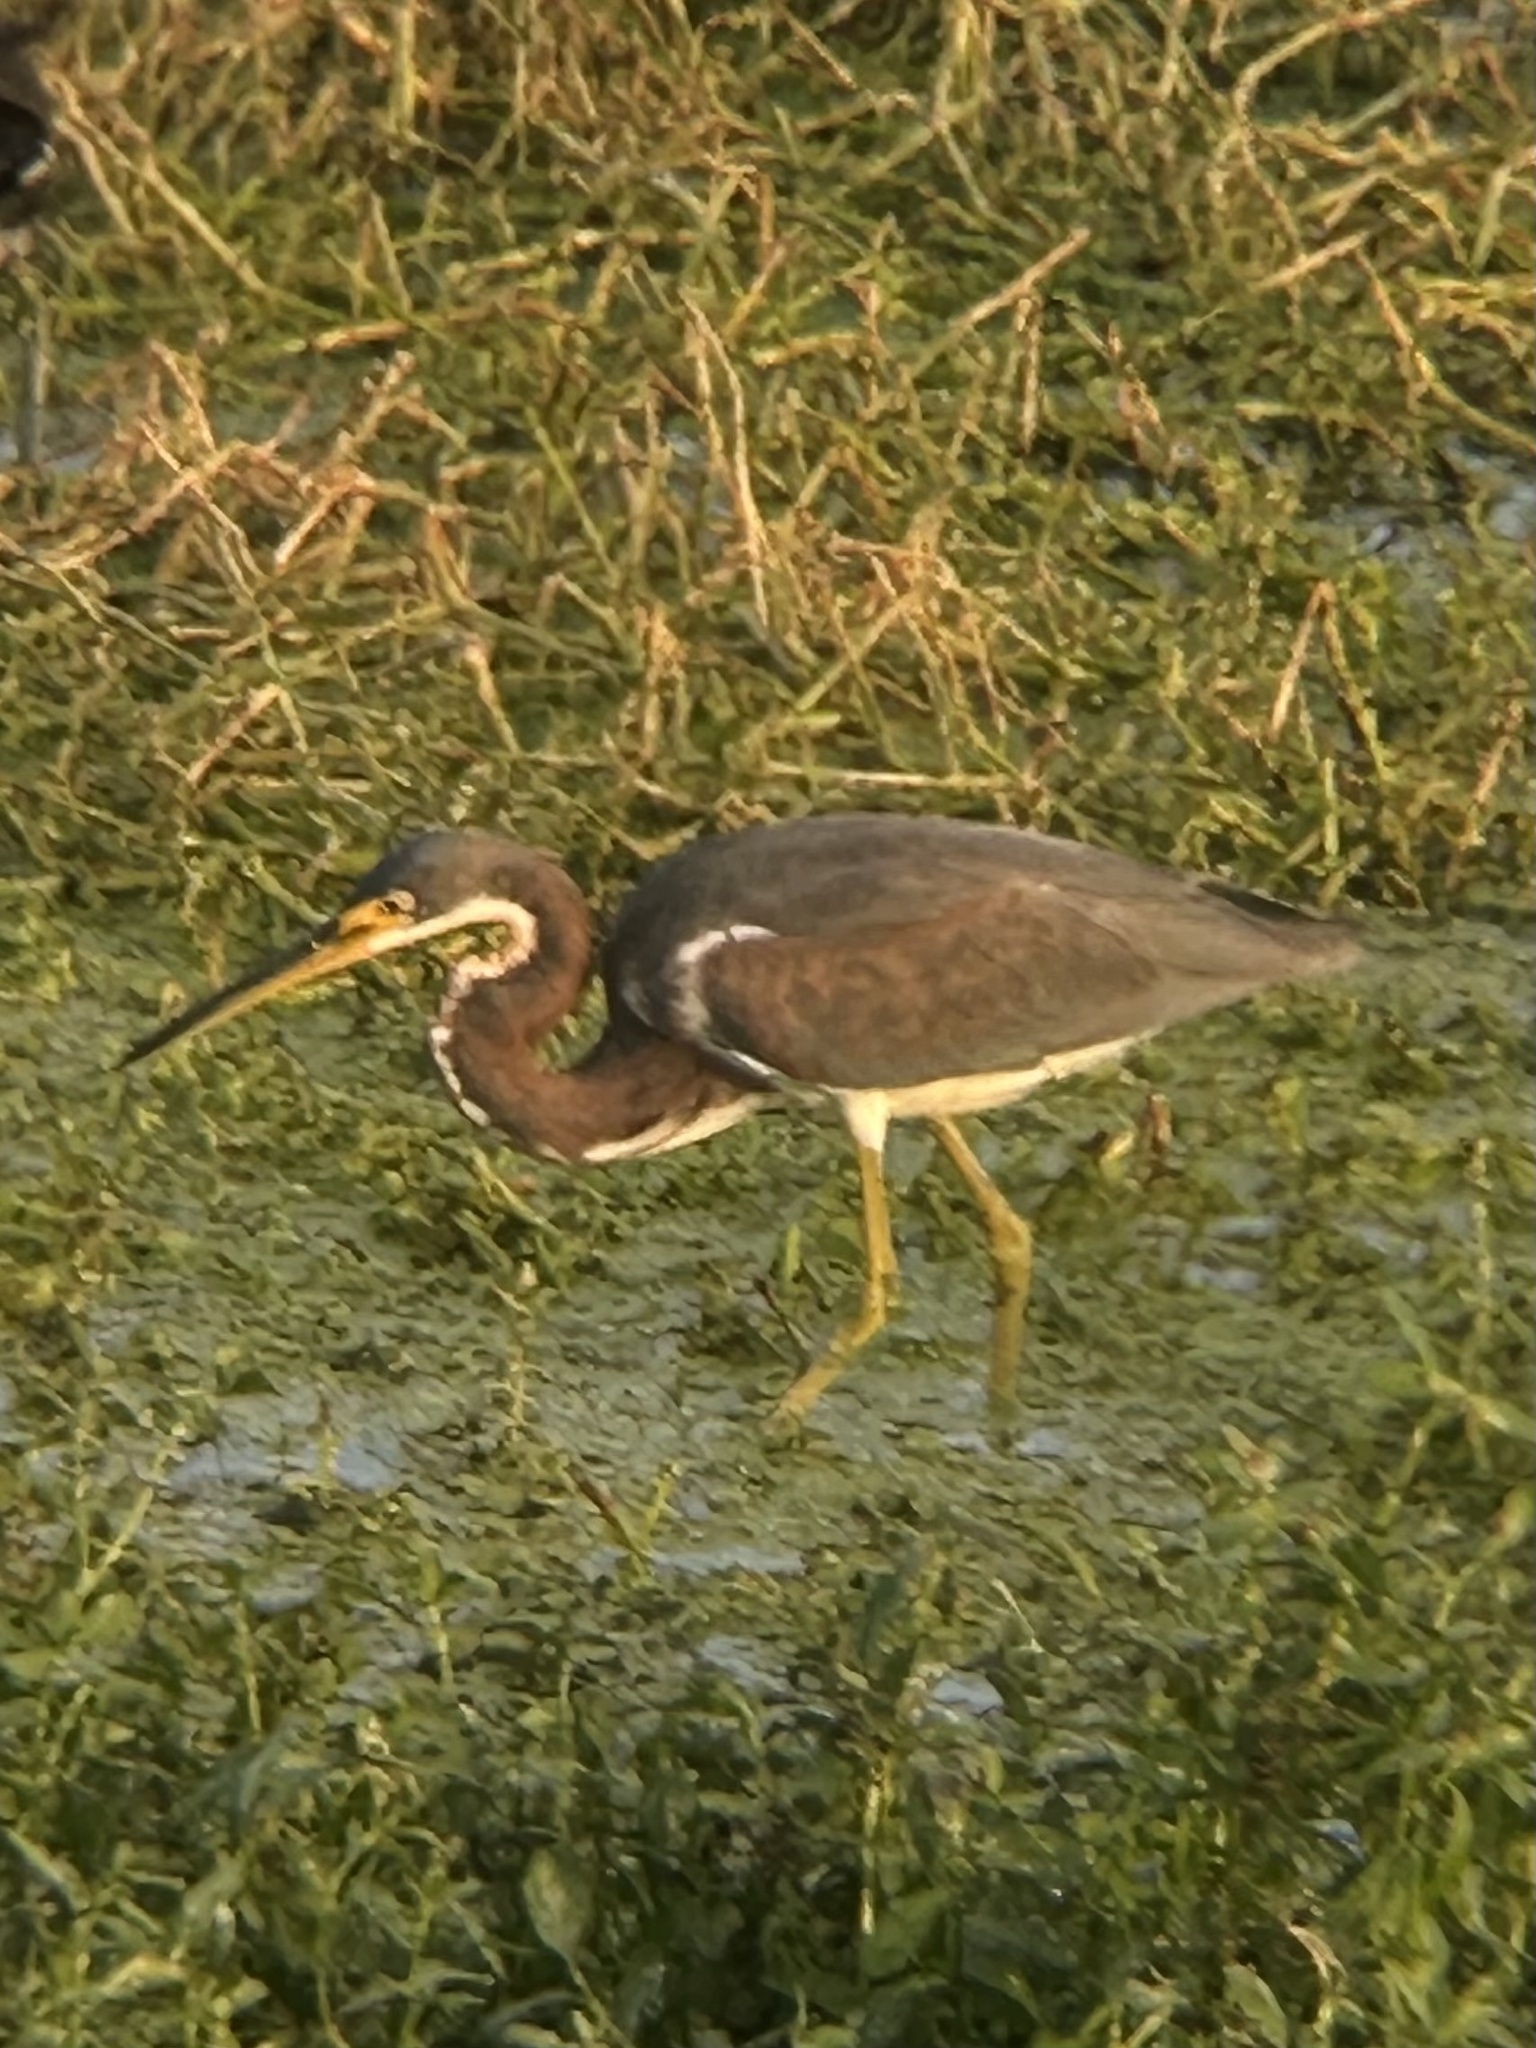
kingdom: Animalia
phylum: Chordata
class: Aves
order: Pelecaniformes
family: Ardeidae
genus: Egretta
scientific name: Egretta tricolor
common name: Tricolored heron
